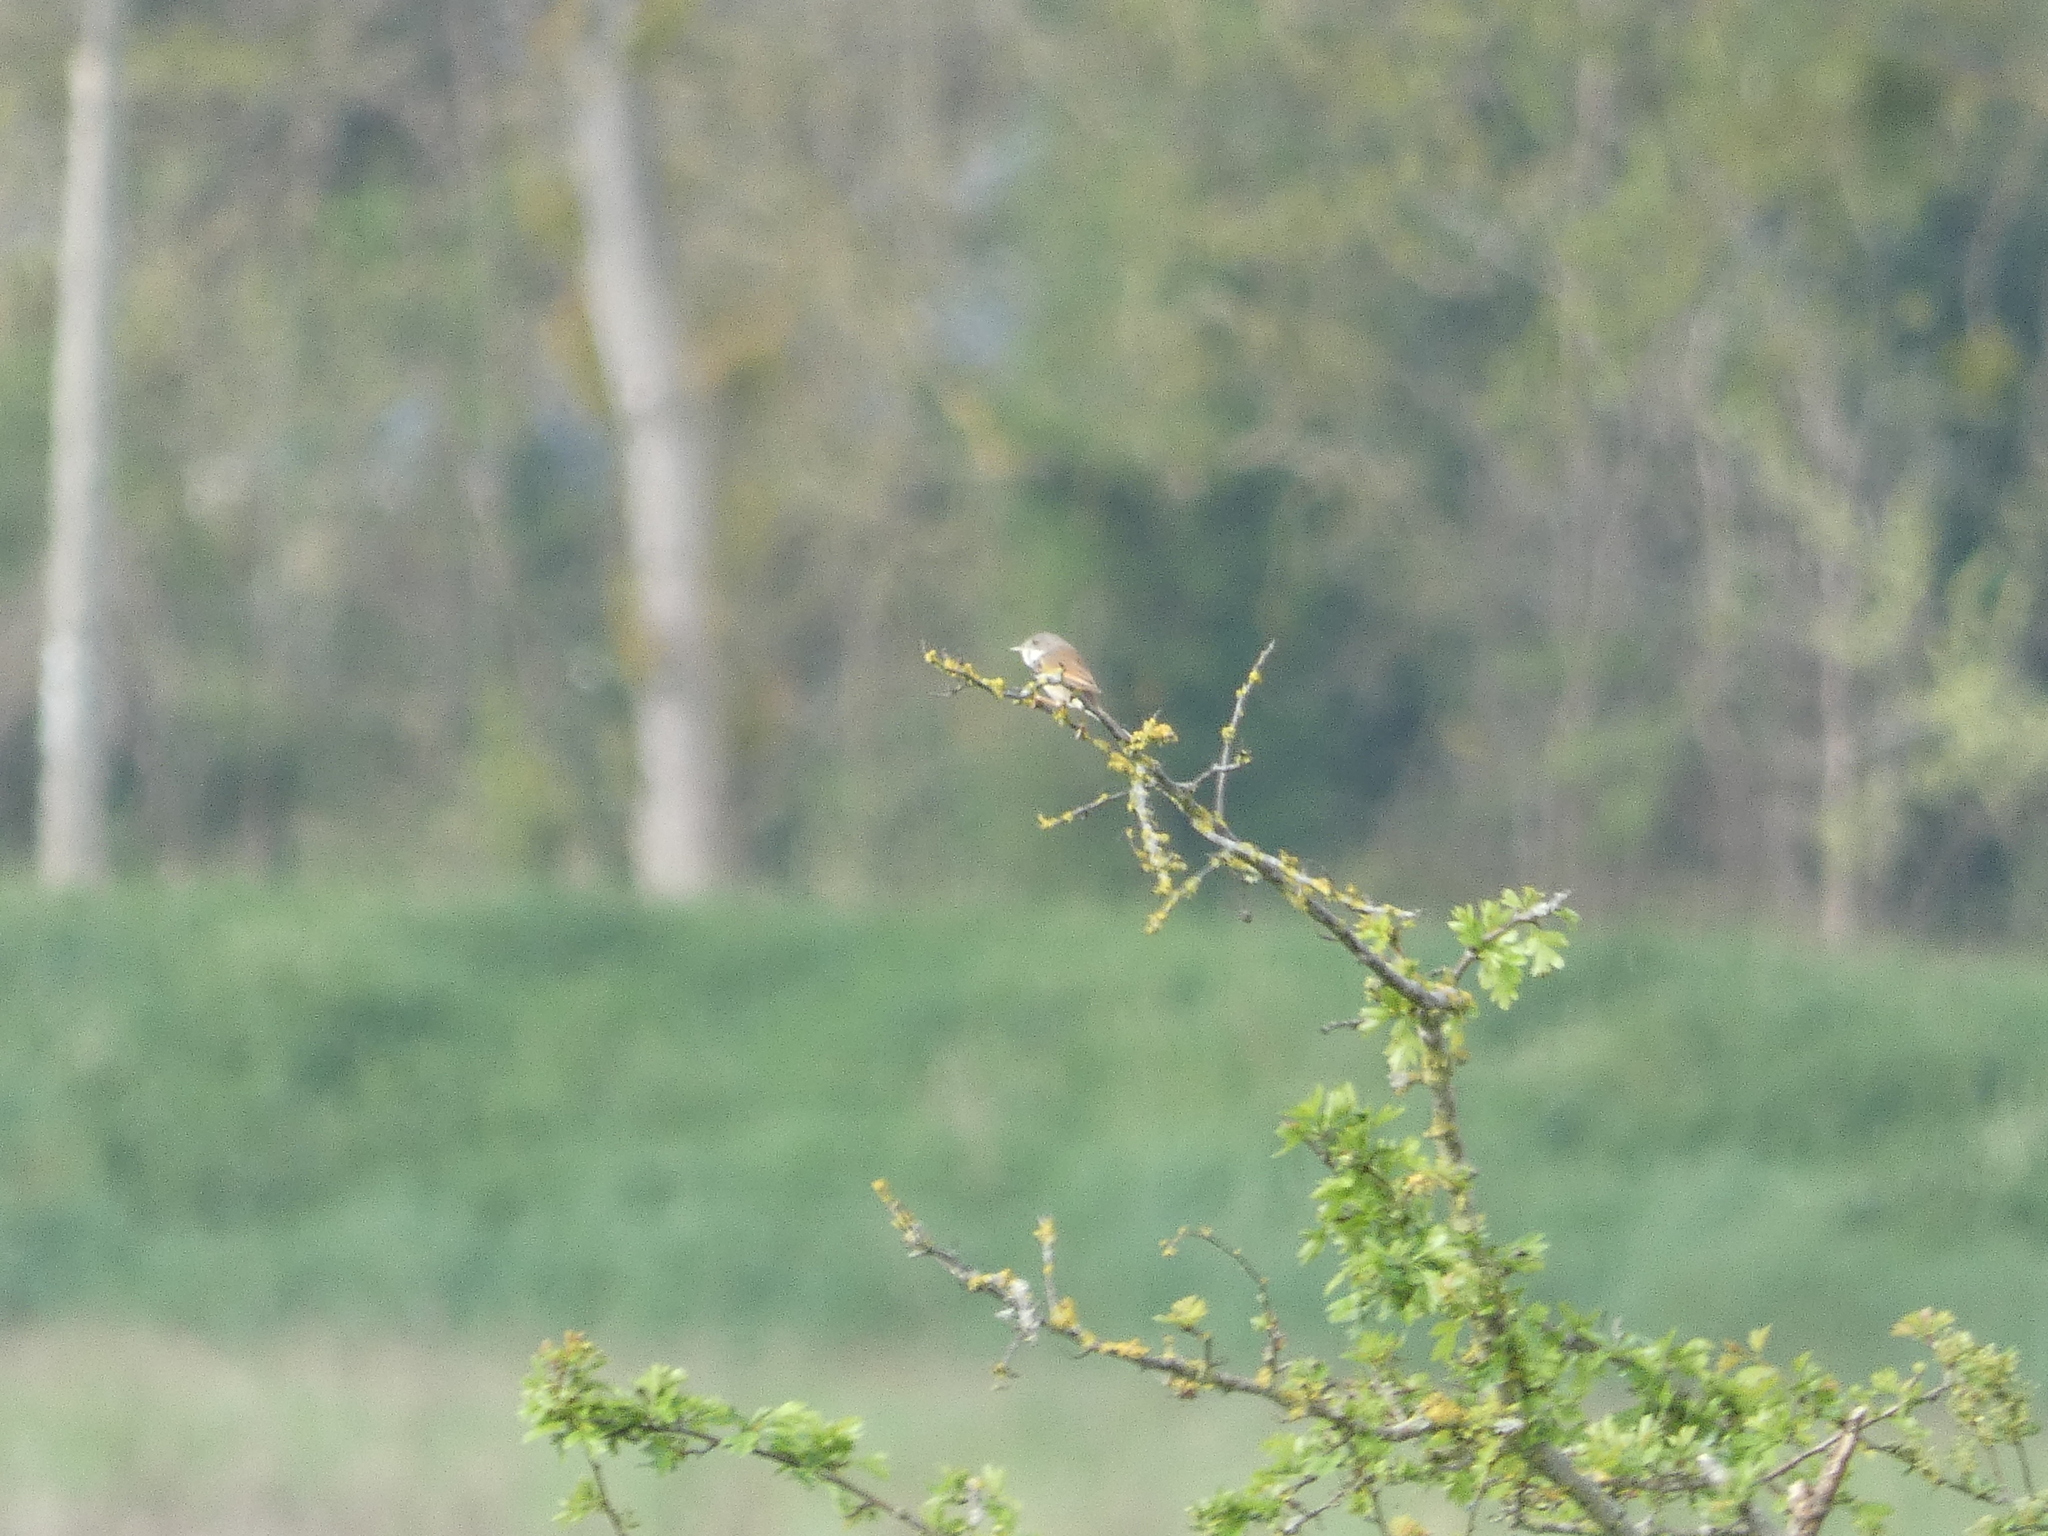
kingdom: Animalia
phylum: Chordata
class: Aves
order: Passeriformes
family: Sylviidae
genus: Sylvia
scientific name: Sylvia communis
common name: Common whitethroat
